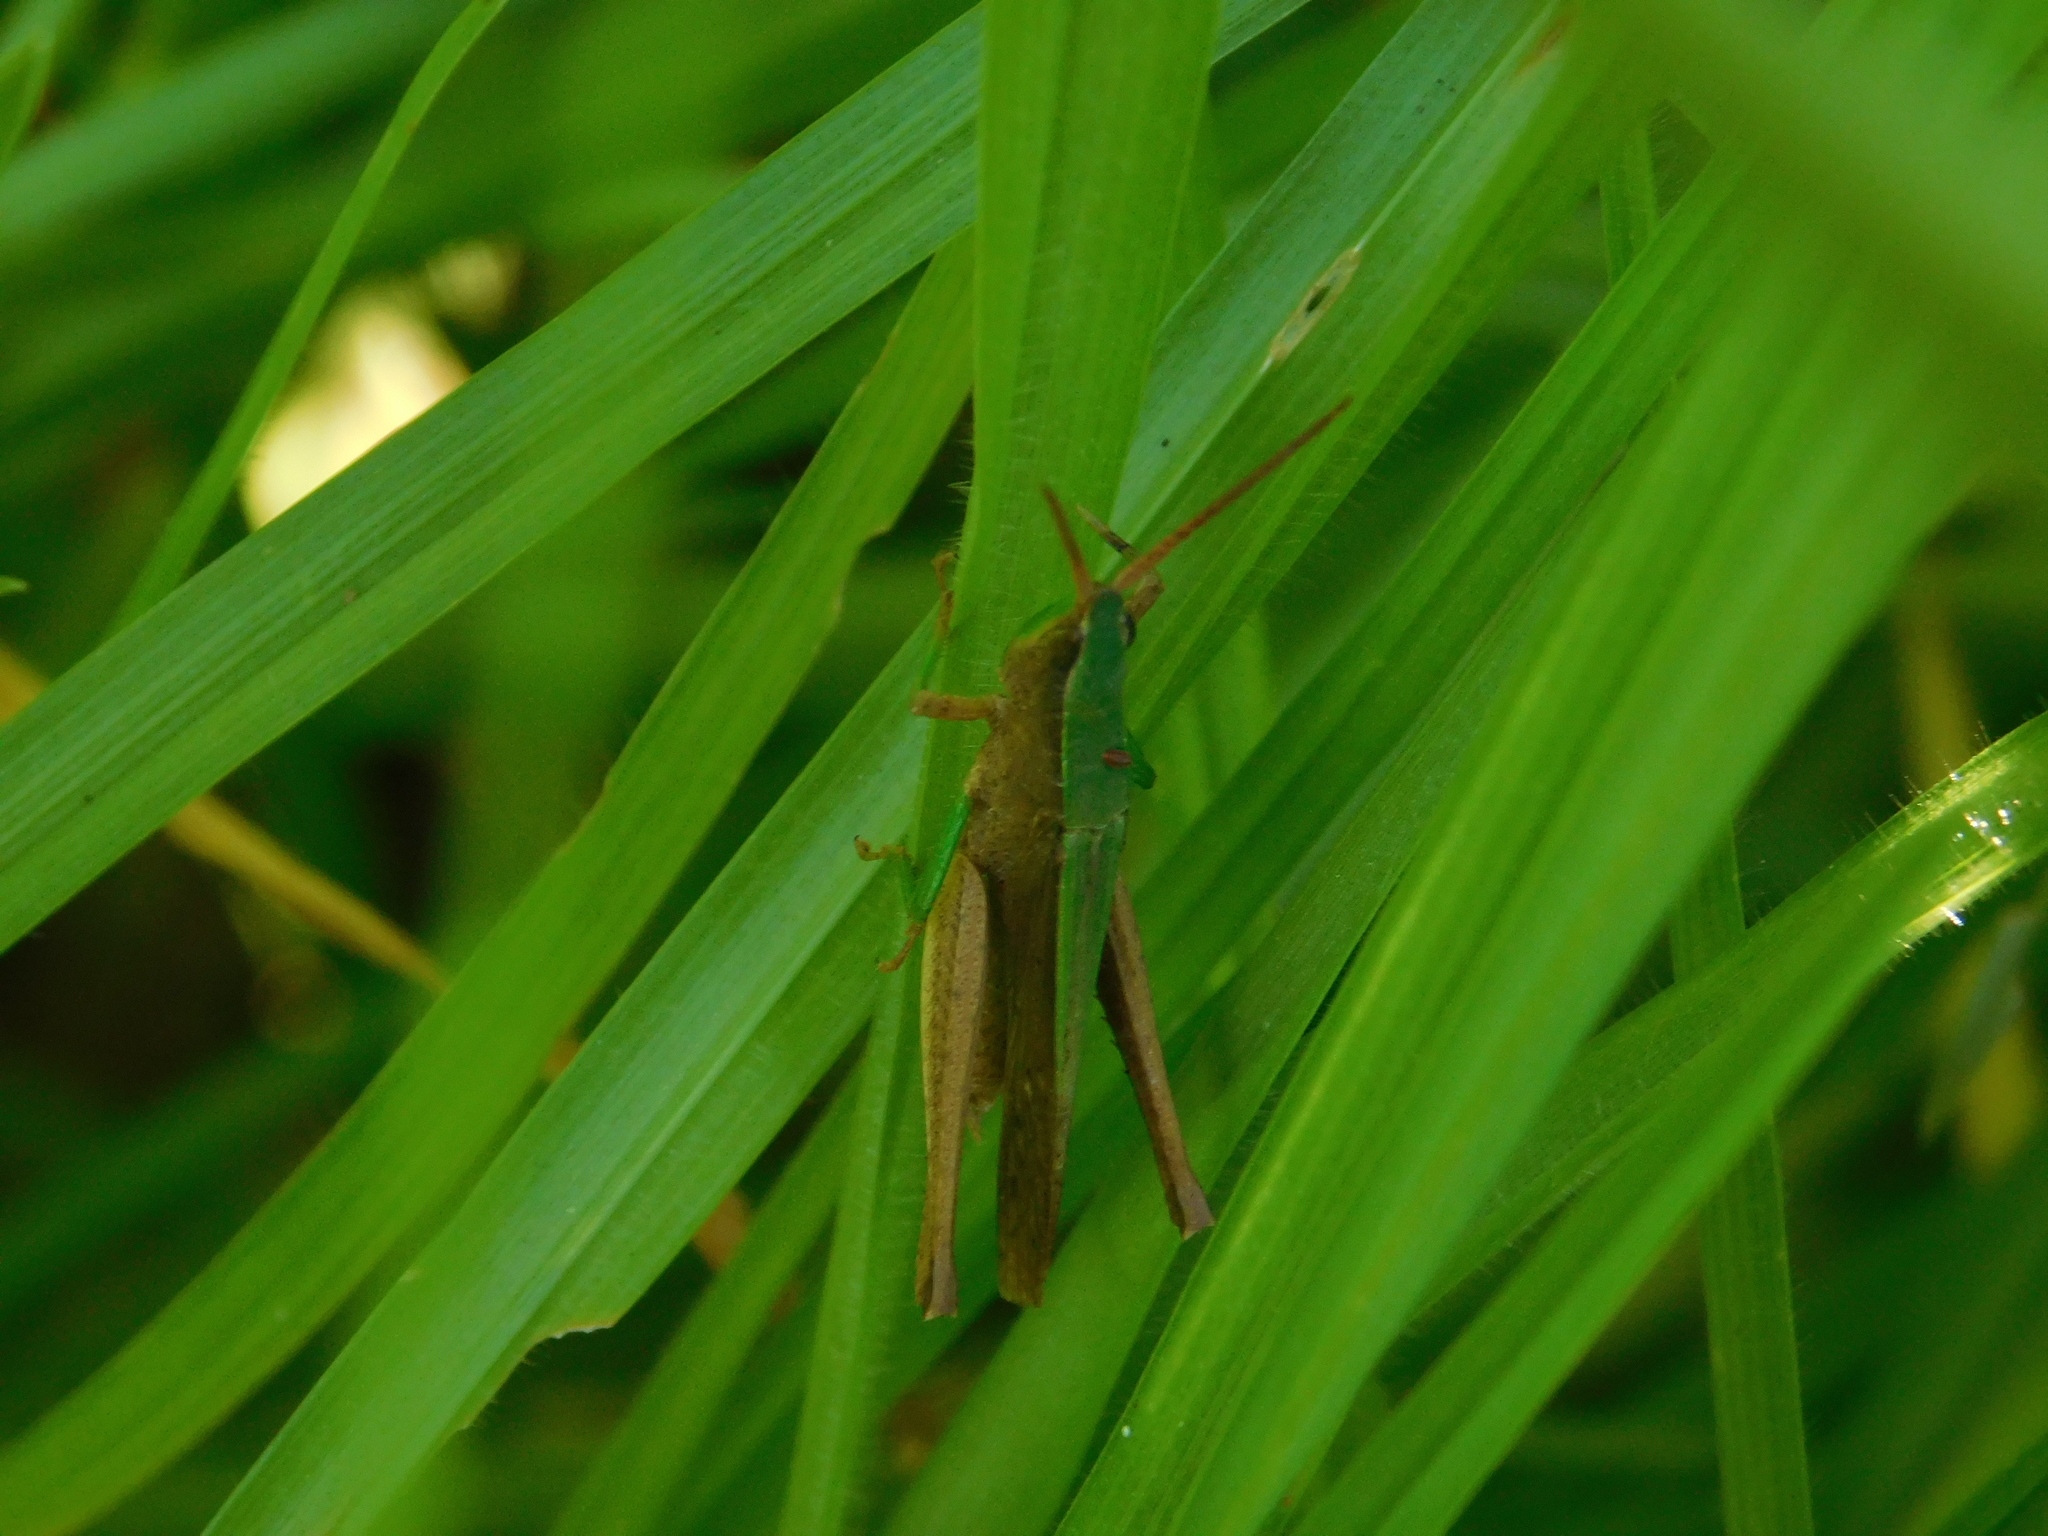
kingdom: Animalia
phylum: Arthropoda
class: Insecta
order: Orthoptera
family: Acrididae
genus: Metaleptea
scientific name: Metaleptea adspersa
